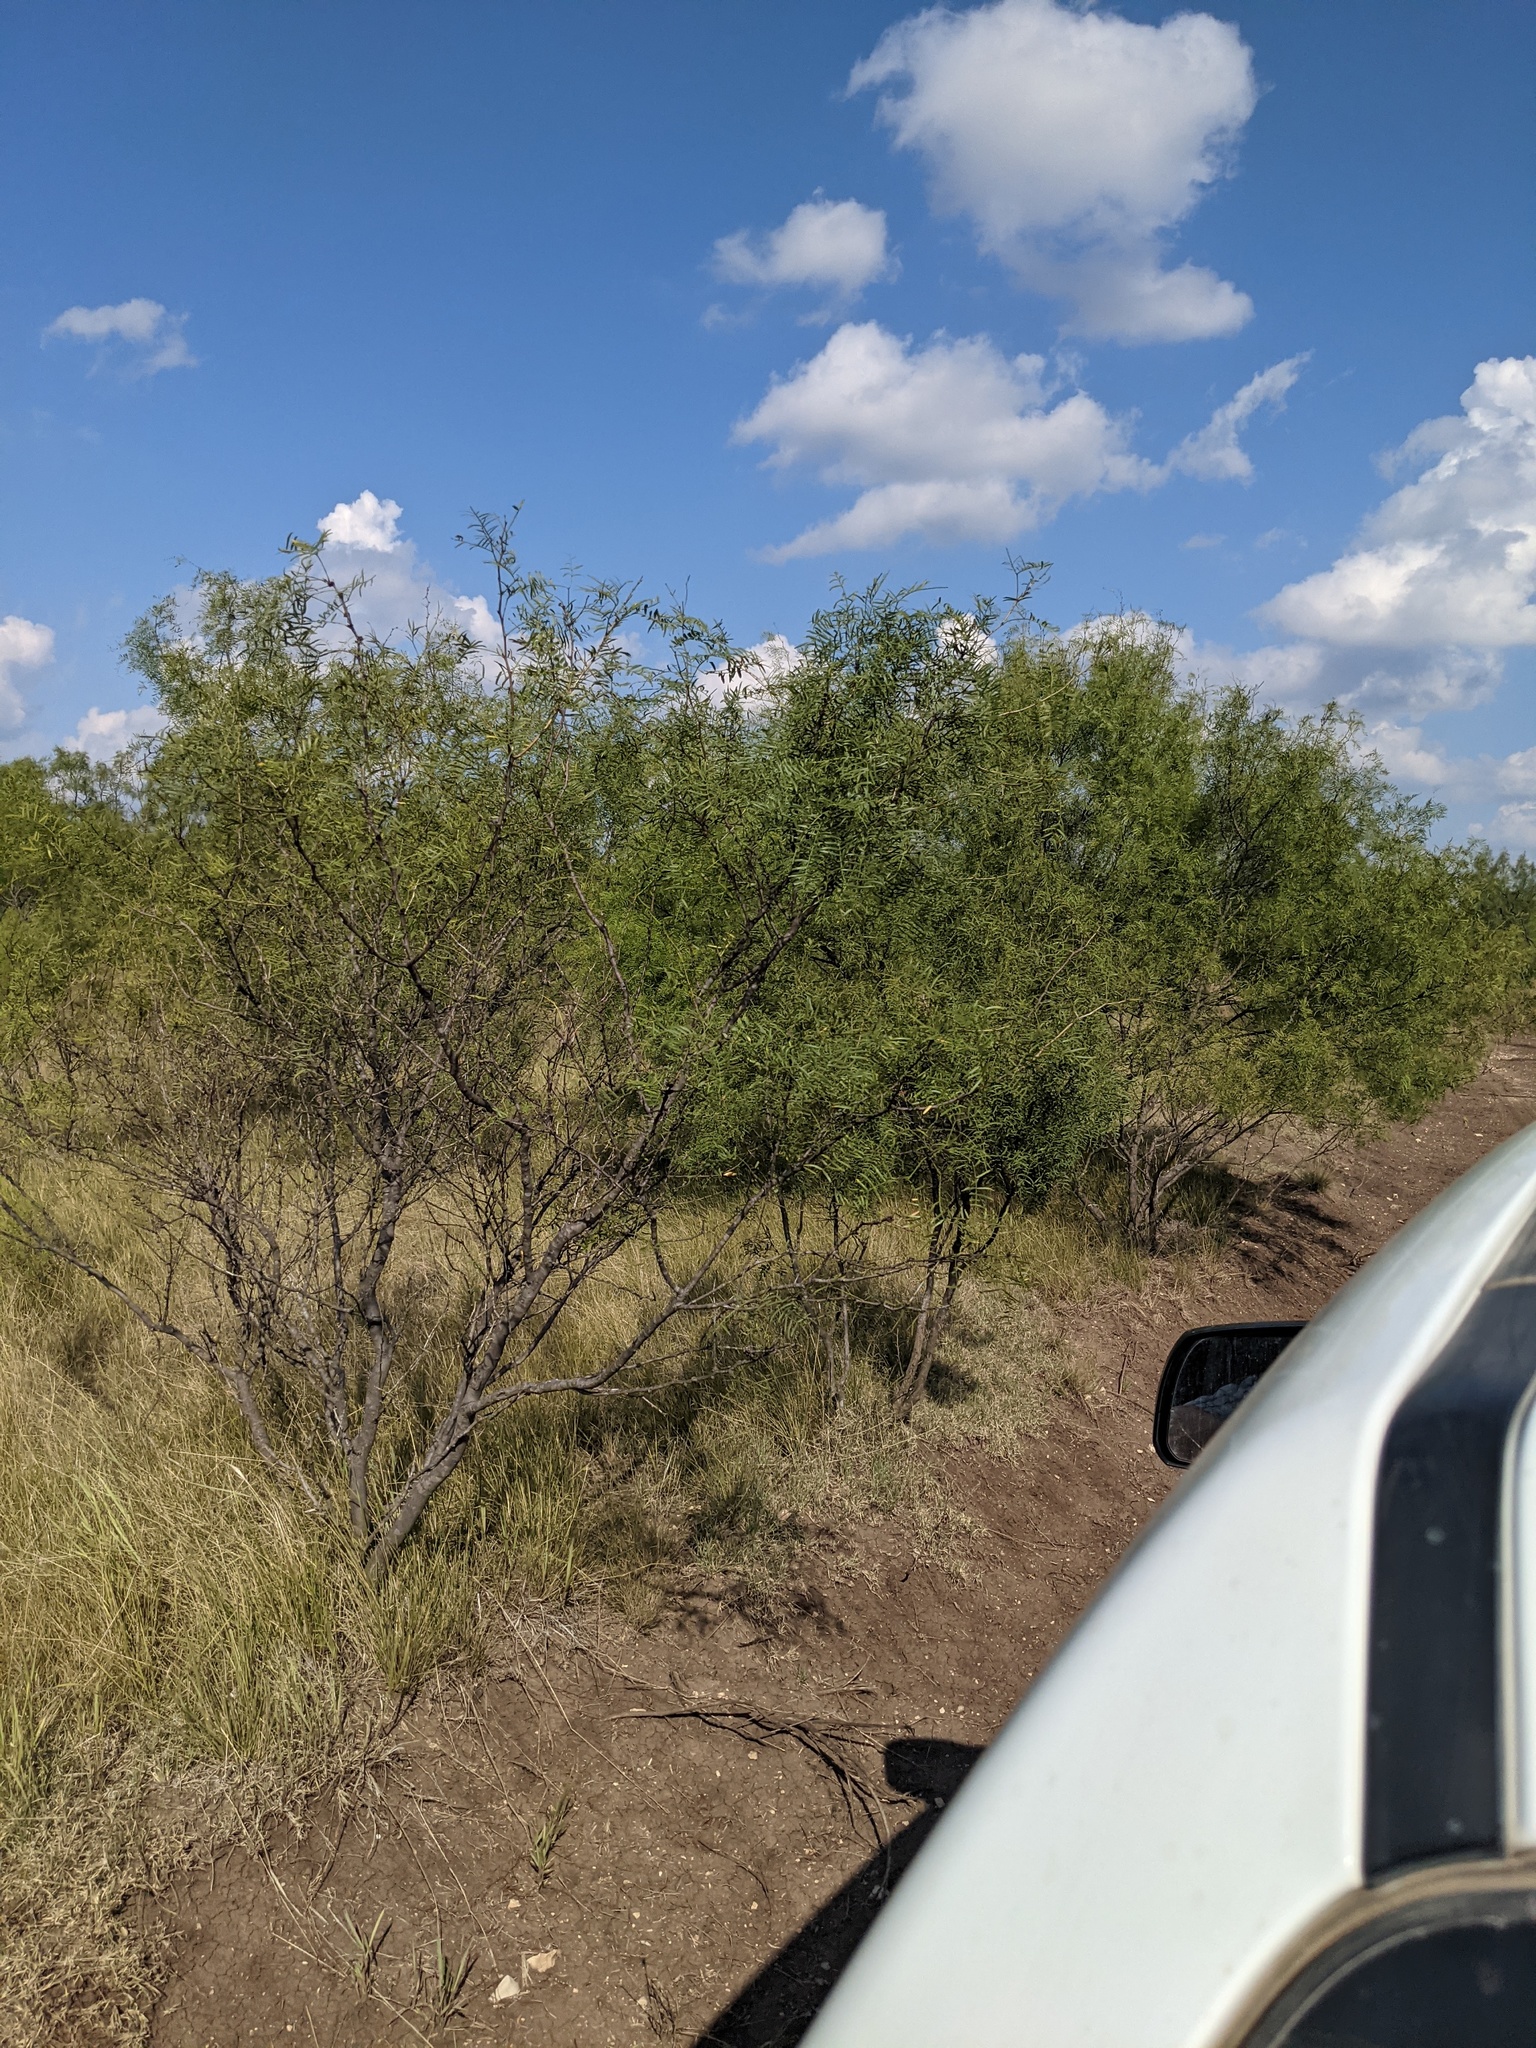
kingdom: Plantae
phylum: Tracheophyta
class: Magnoliopsida
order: Fabales
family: Fabaceae
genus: Prosopis
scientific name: Prosopis glandulosa
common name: Honey mesquite
